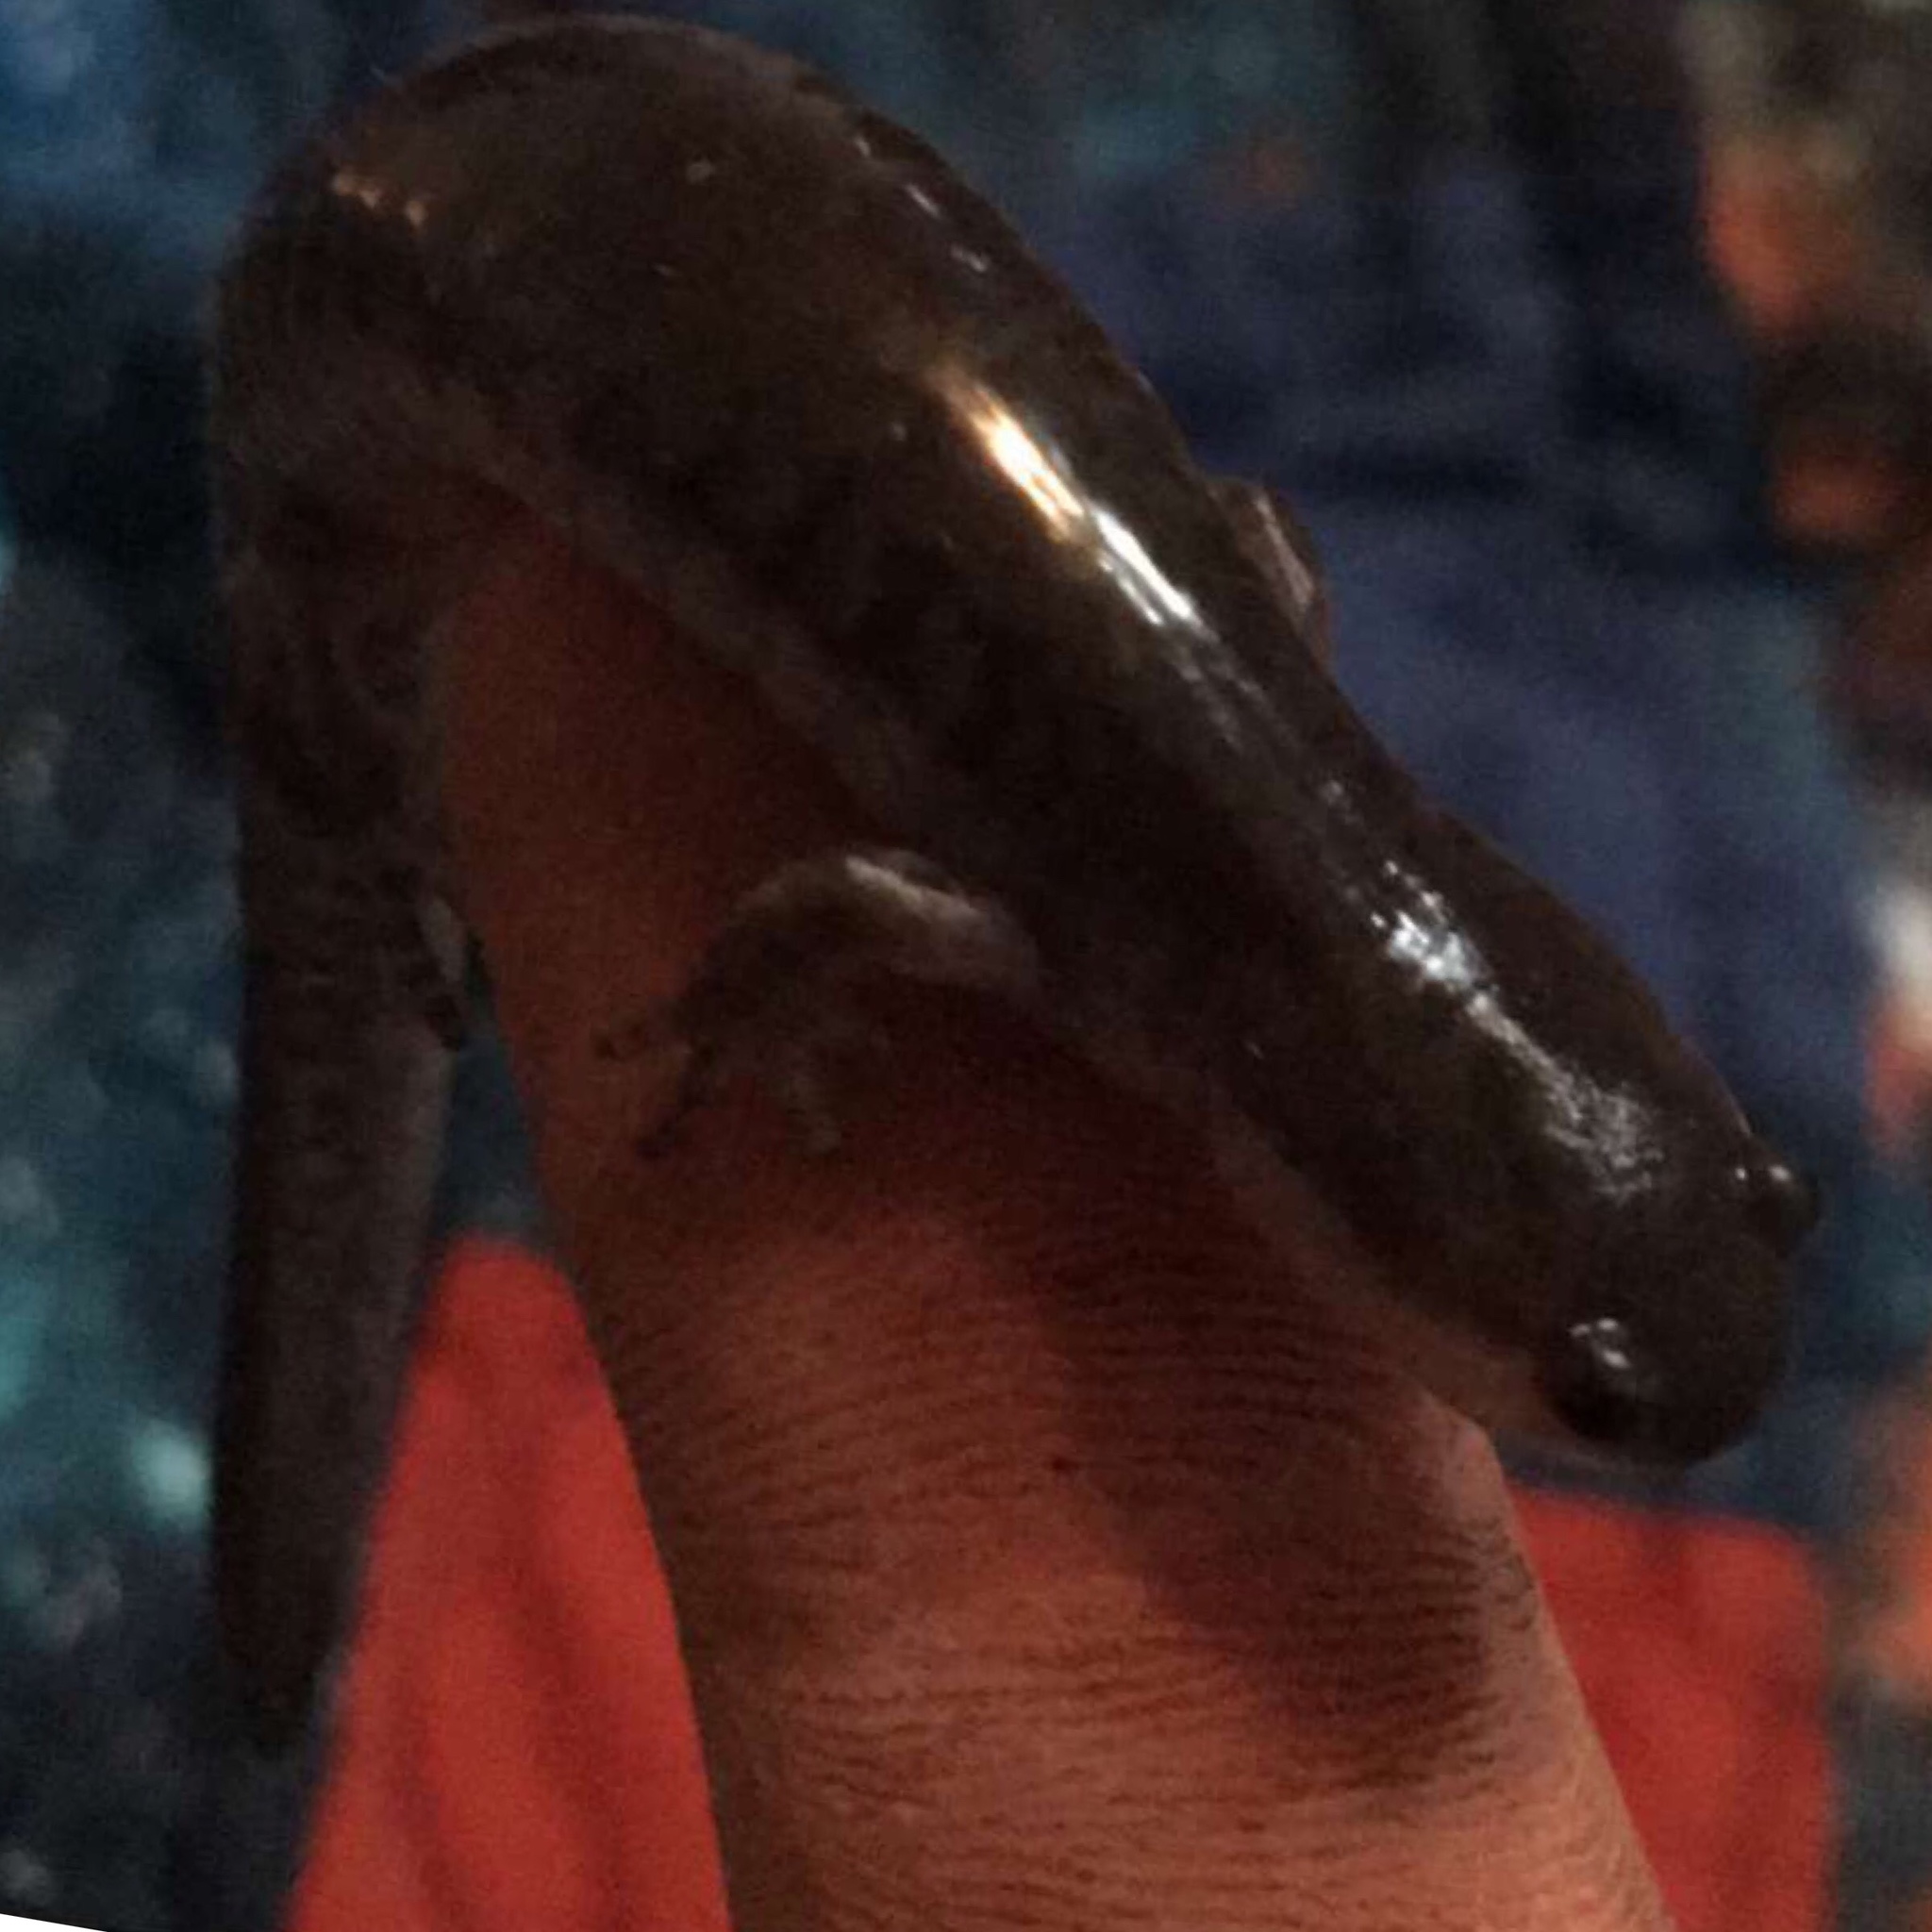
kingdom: Animalia
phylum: Chordata
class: Amphibia
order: Caudata
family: Ambystomatidae
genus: Ambystoma
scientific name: Ambystoma texanum
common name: Small-mouth salamander
